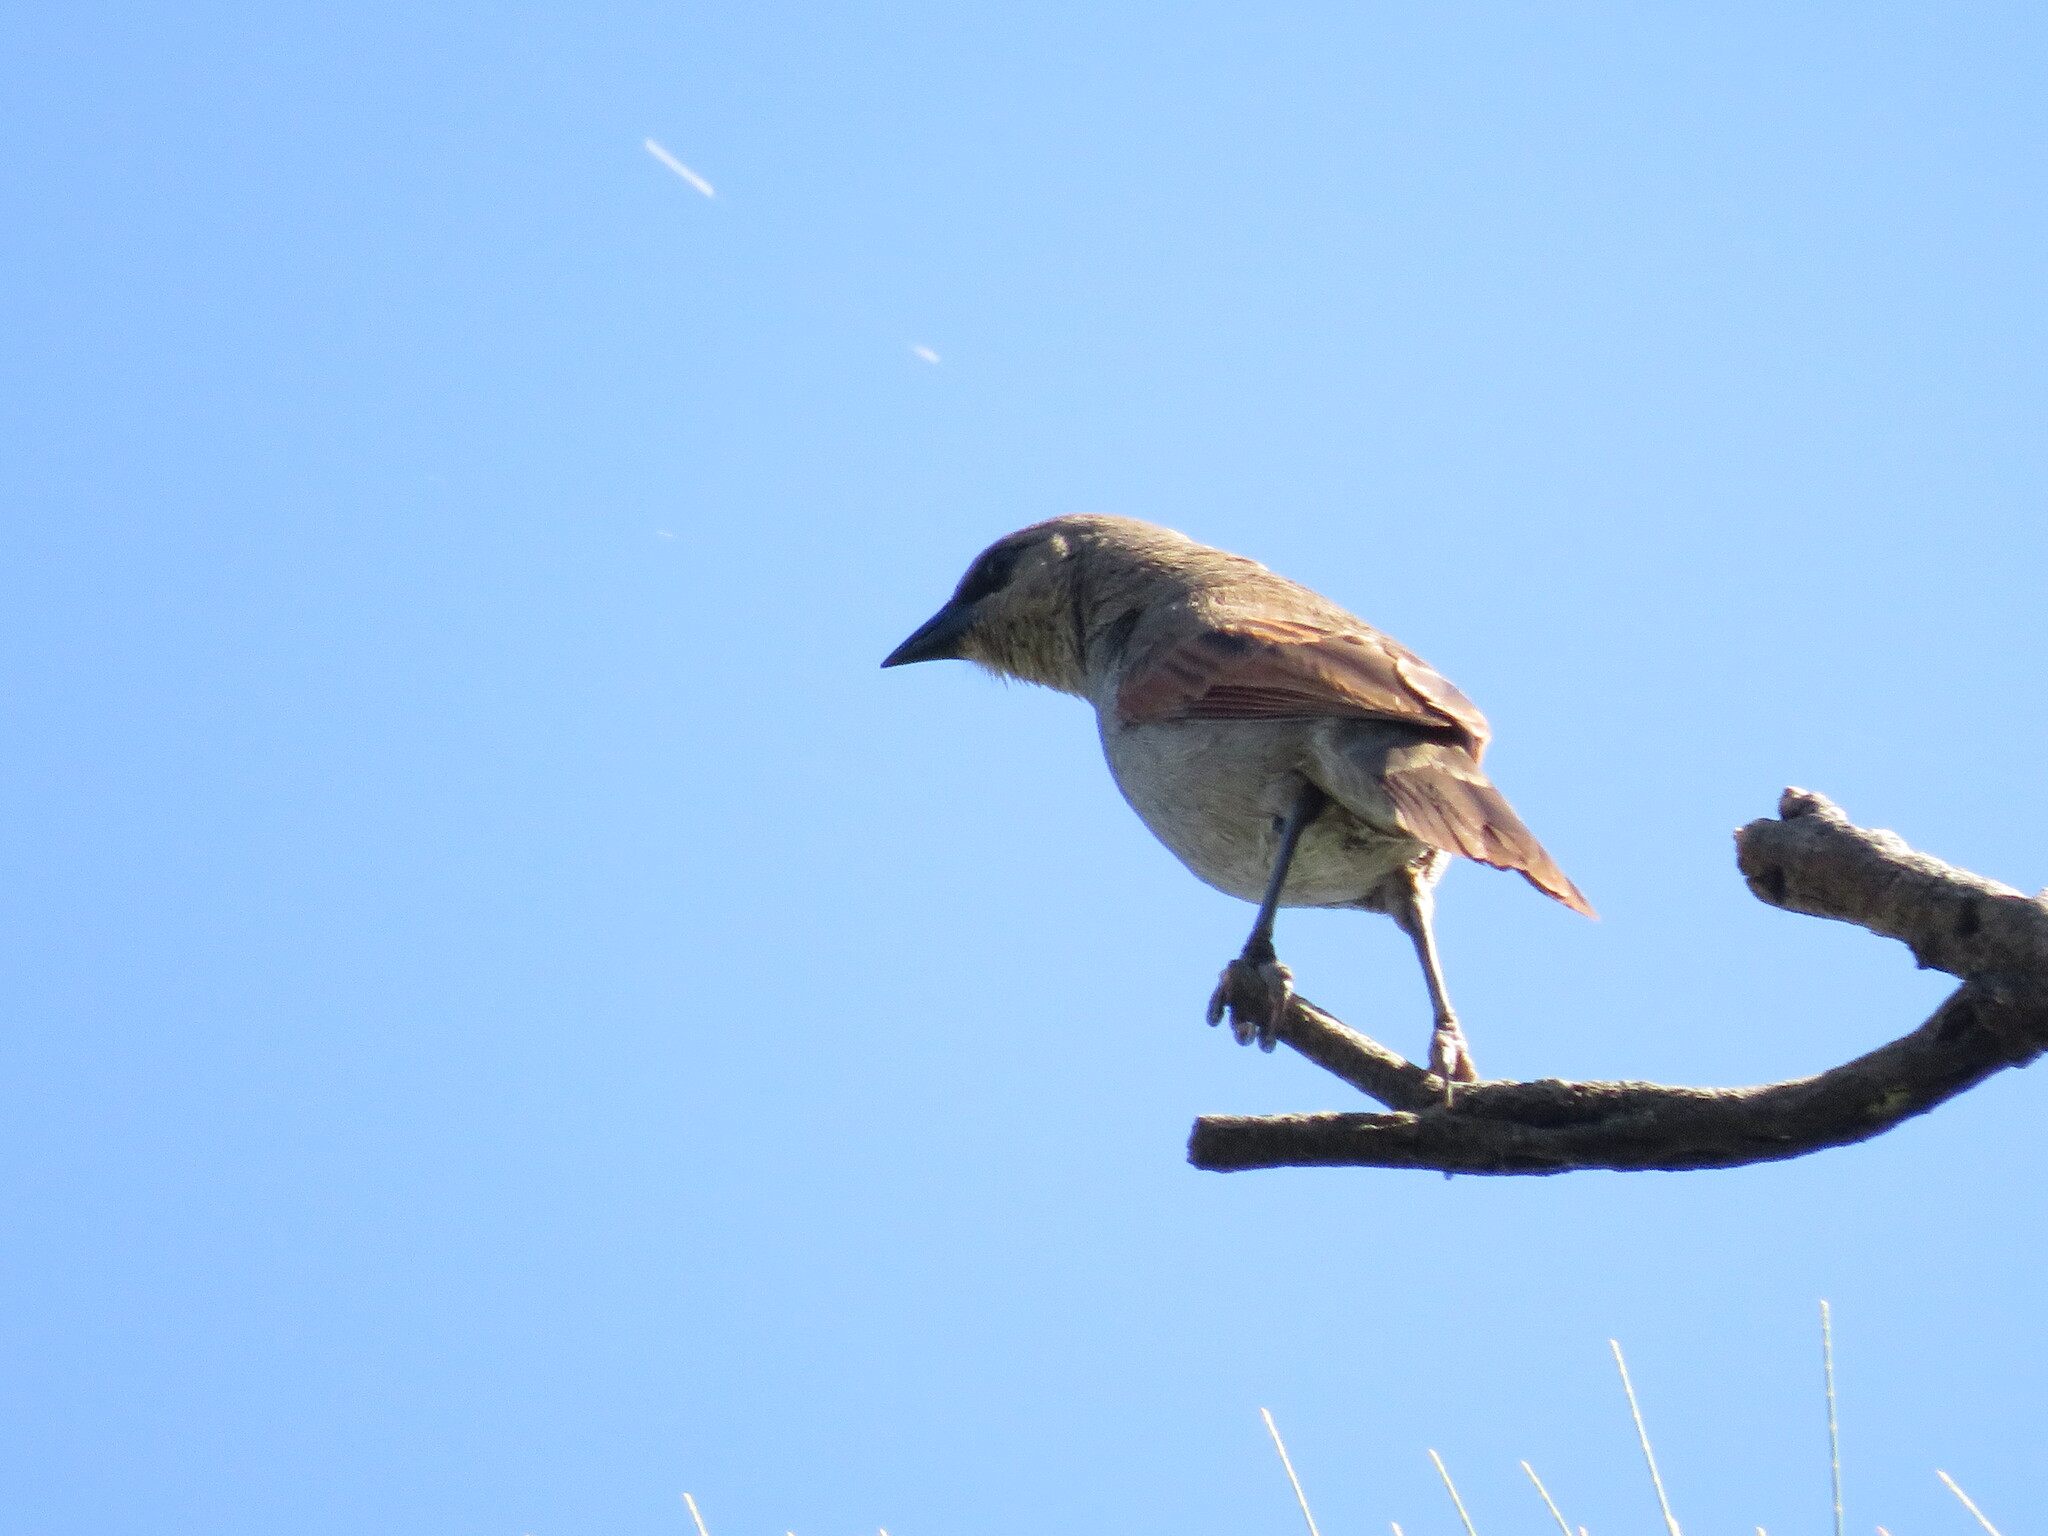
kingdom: Animalia
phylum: Chordata
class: Aves
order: Passeriformes
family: Icteridae
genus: Agelaioides
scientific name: Agelaioides badius
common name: Baywing
